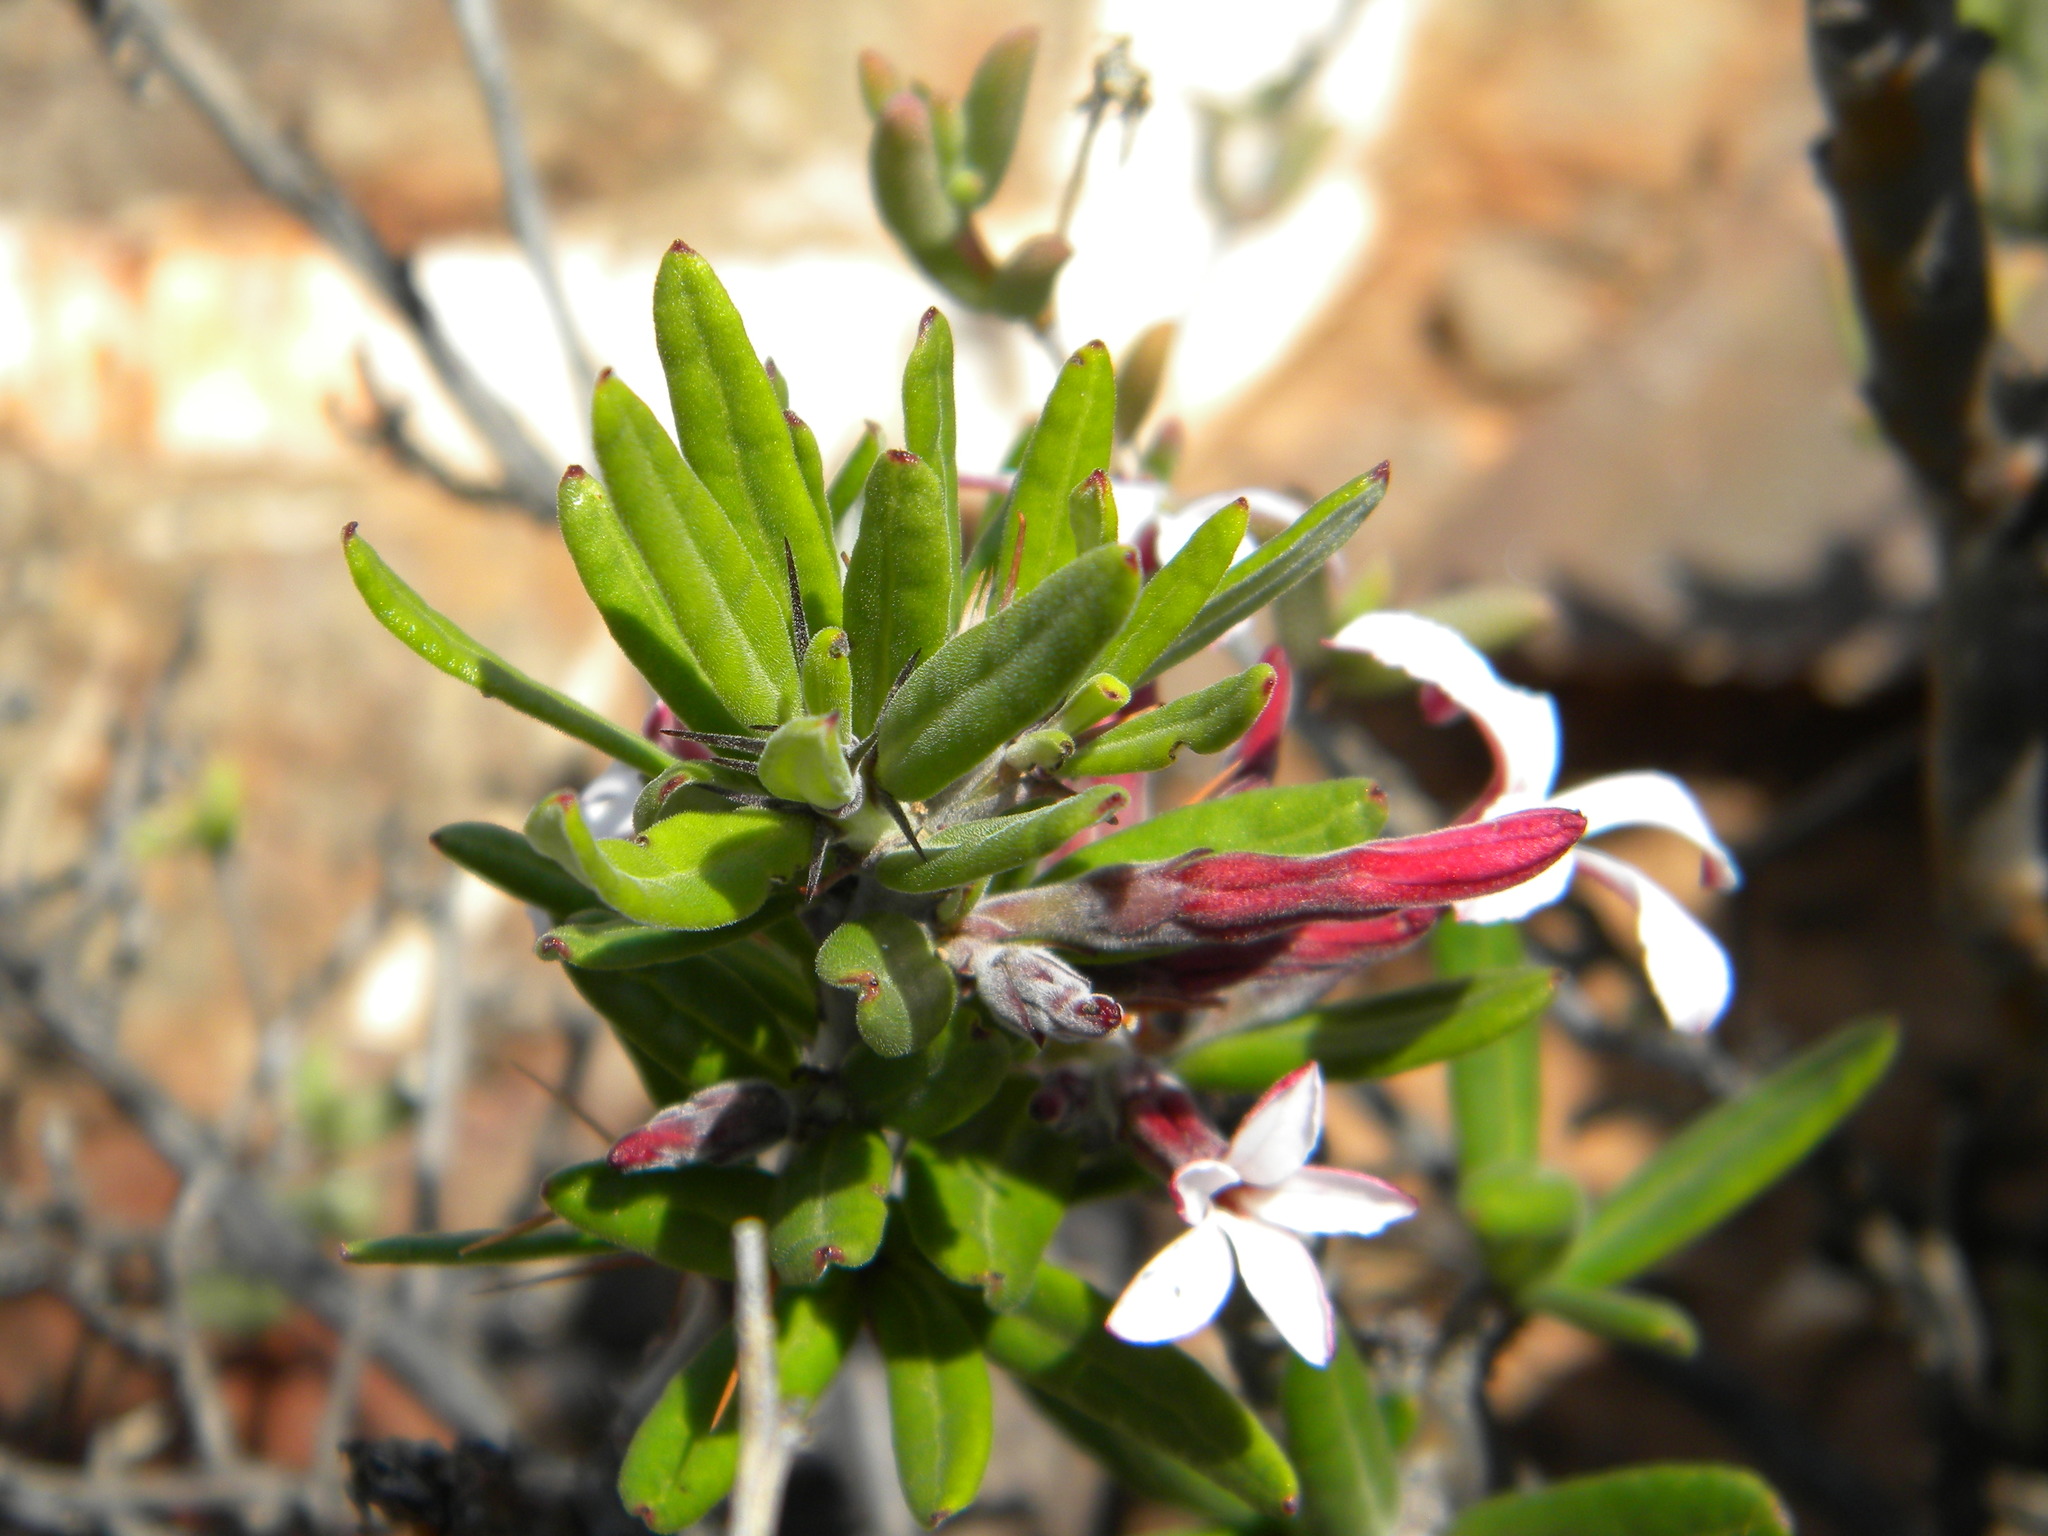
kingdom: Plantae
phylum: Tracheophyta
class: Magnoliopsida
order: Gentianales
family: Apocynaceae
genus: Pachypodium
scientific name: Pachypodium succulentum
